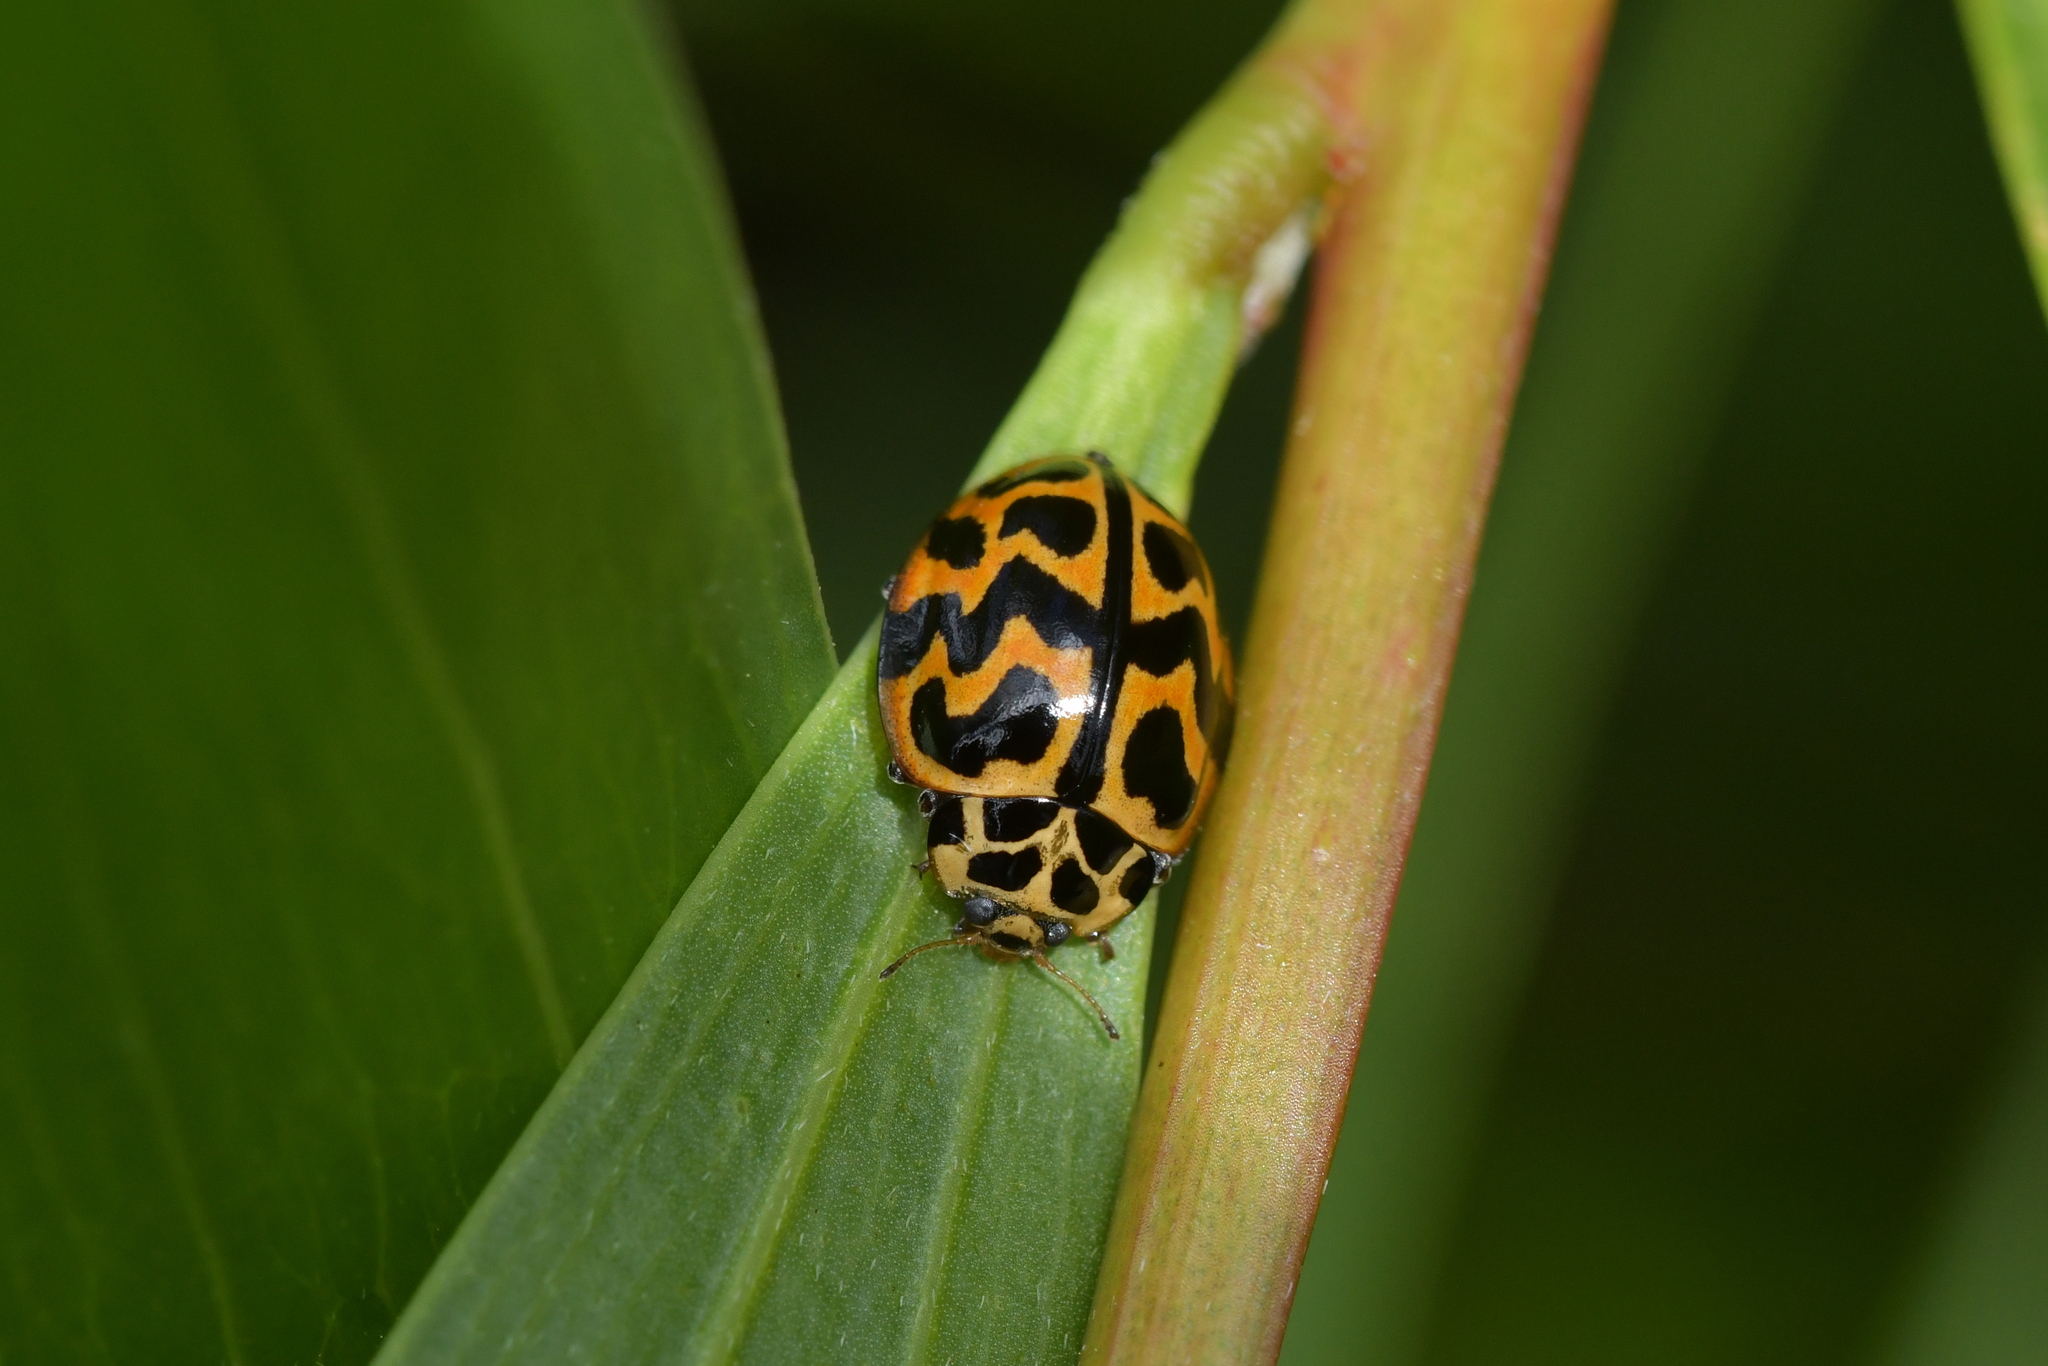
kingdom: Animalia
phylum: Arthropoda
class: Insecta
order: Coleoptera
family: Coccinellidae
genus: Cleobora
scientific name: Cleobora
